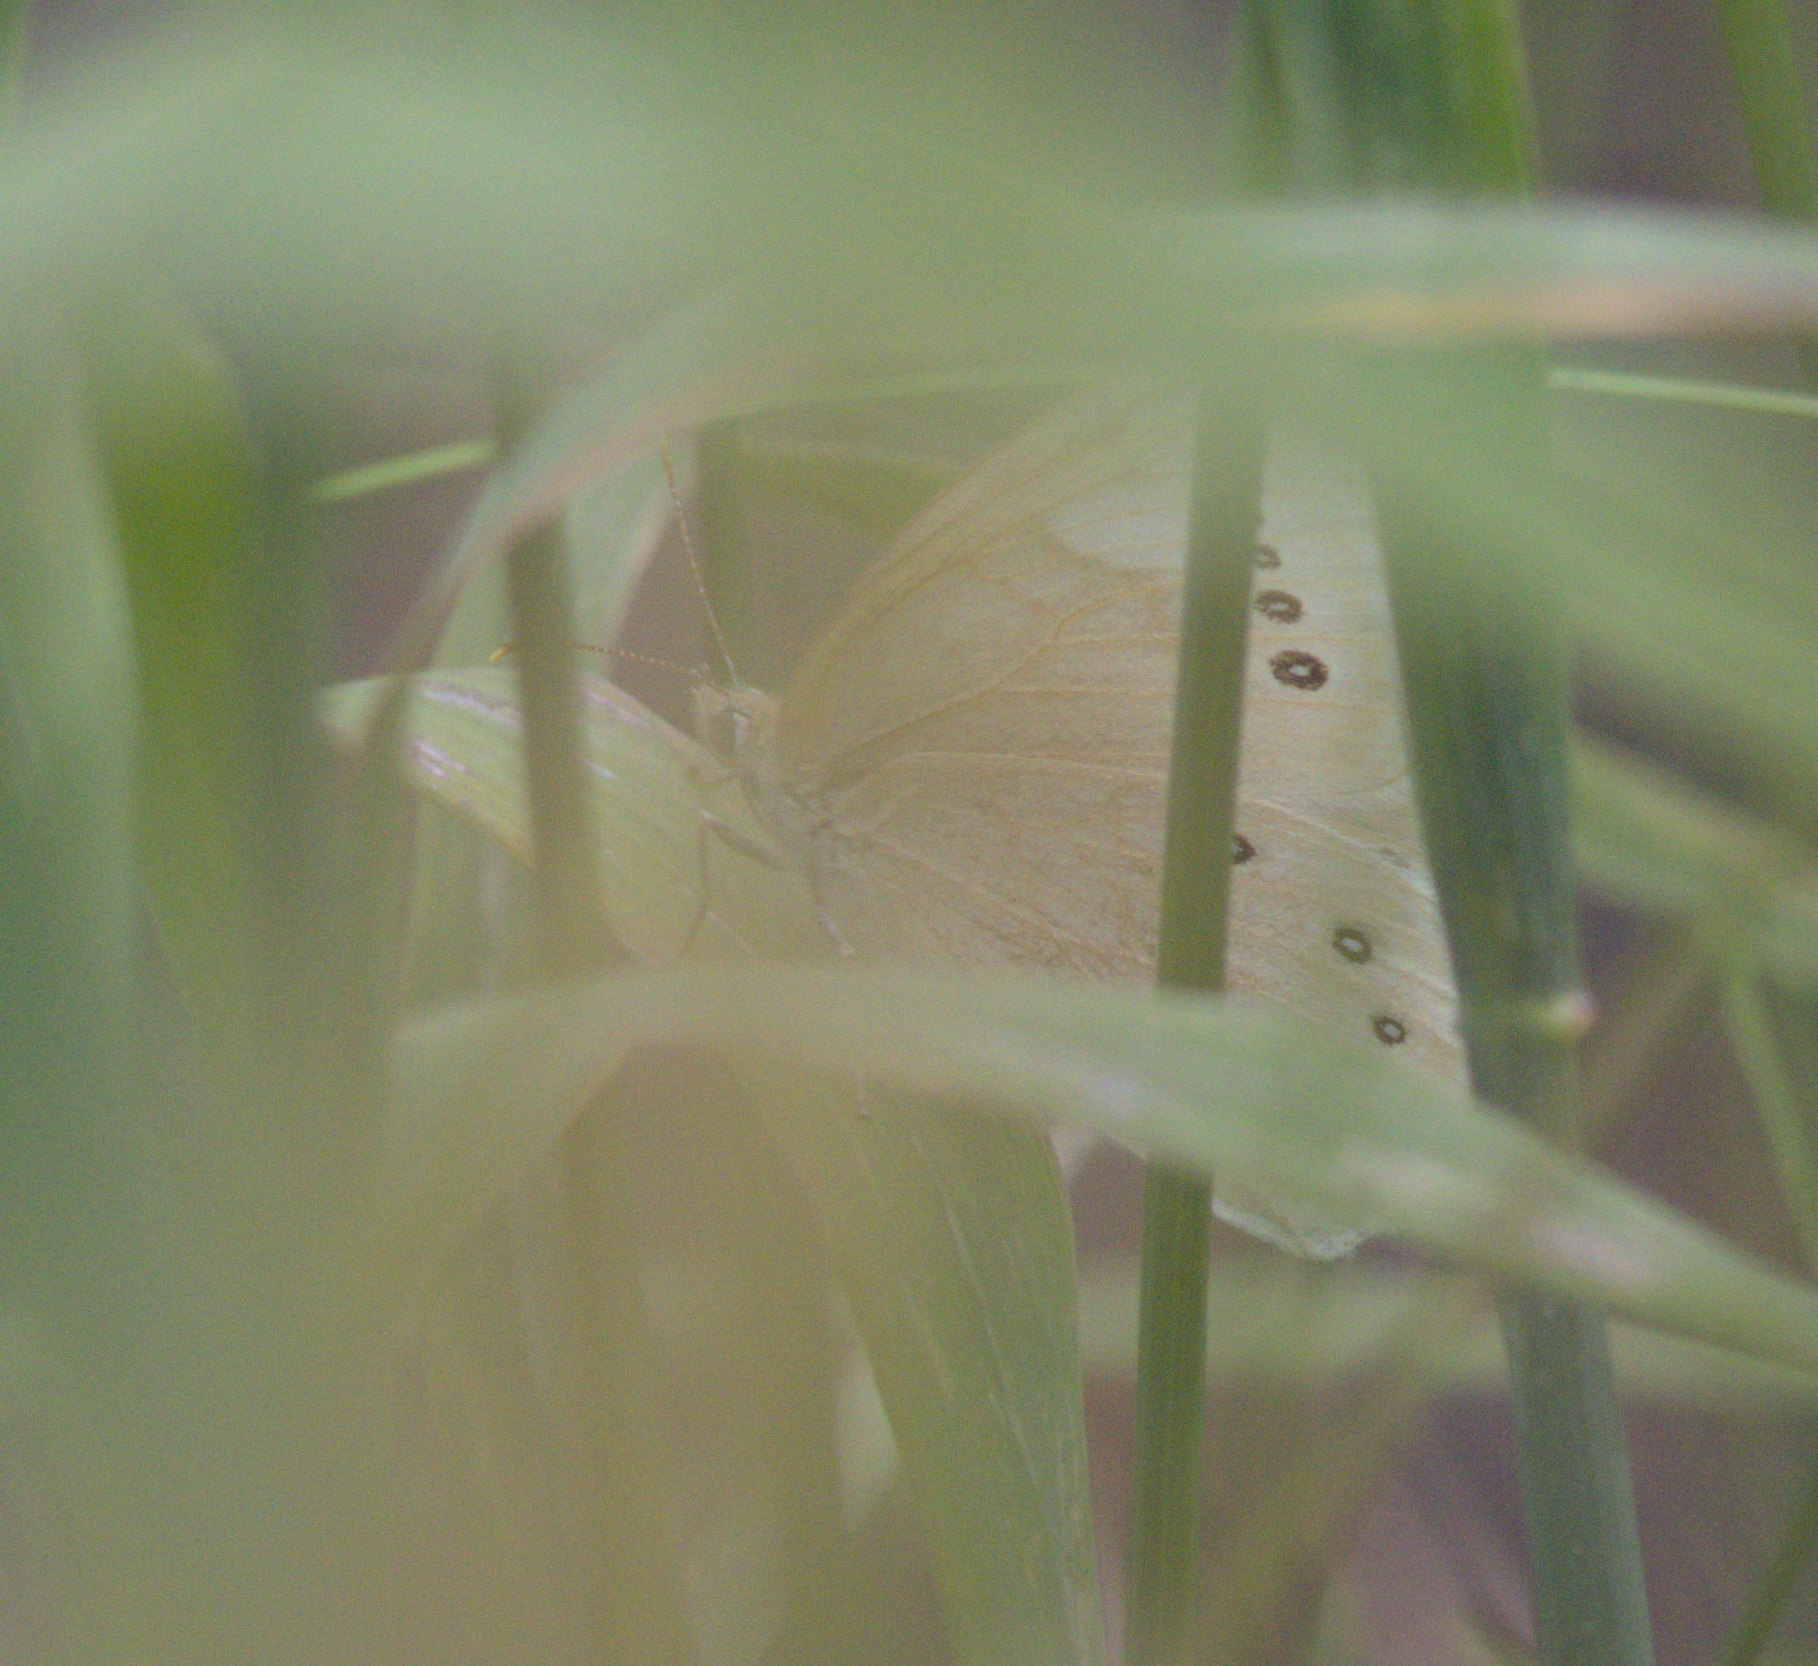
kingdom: Animalia
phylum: Arthropoda
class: Insecta
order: Lepidoptera
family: Nymphalidae
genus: Lethe
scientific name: Lethe eurydice
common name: Eyed brown
